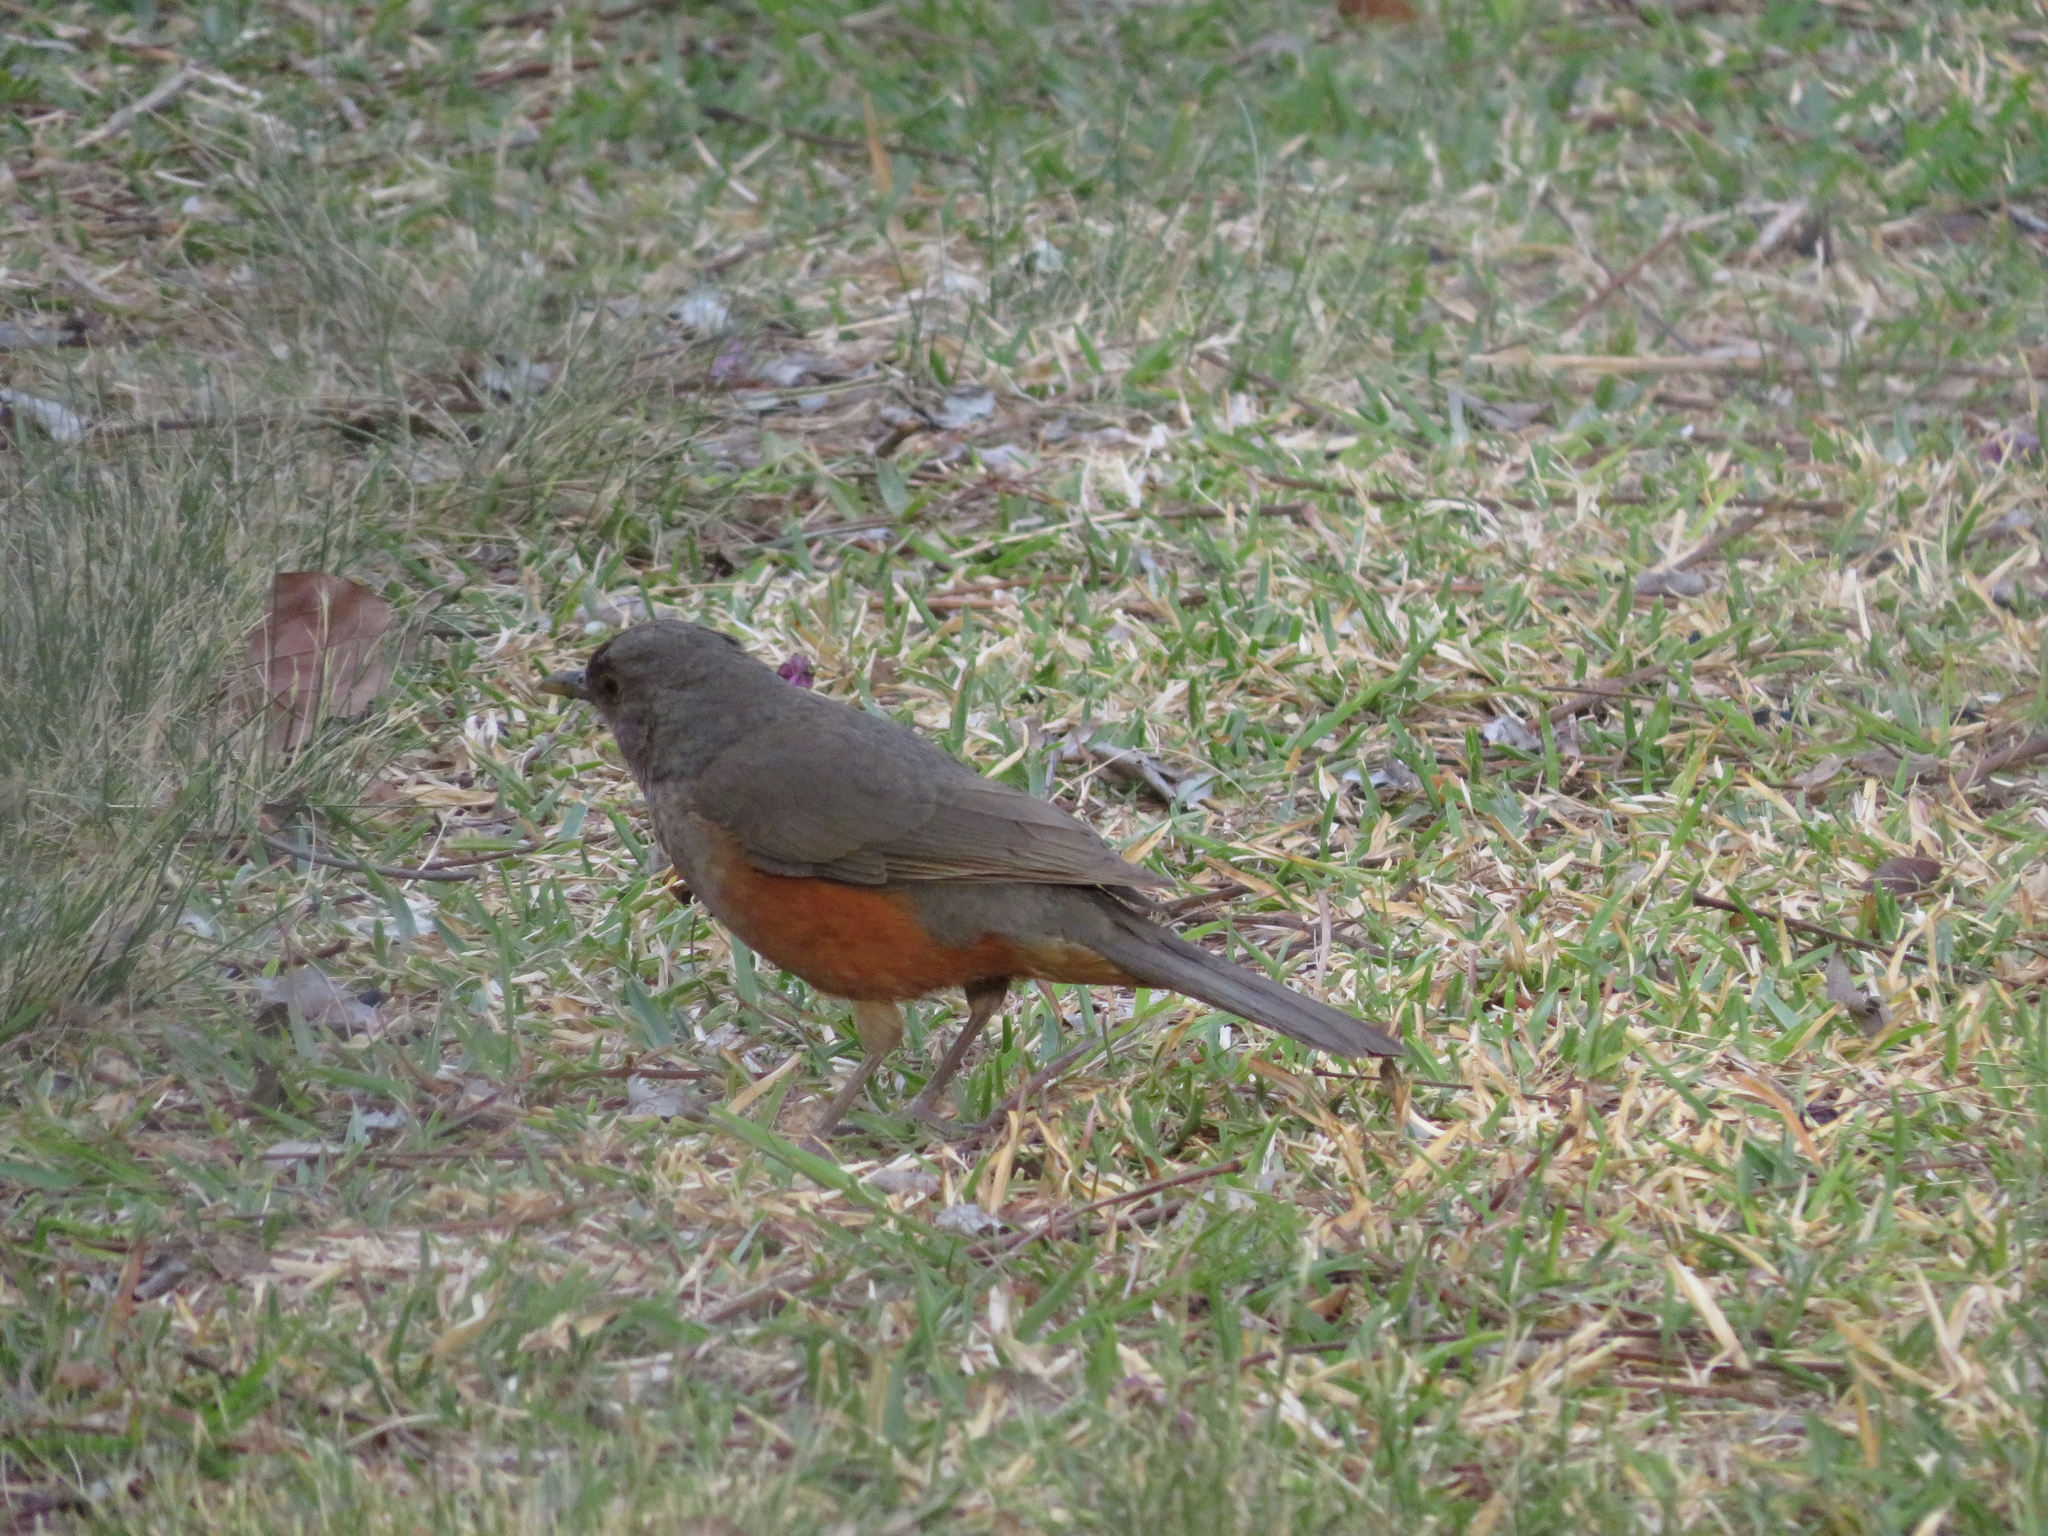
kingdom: Animalia
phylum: Chordata
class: Aves
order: Passeriformes
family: Turdidae
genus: Turdus
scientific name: Turdus rufiventris
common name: Rufous-bellied thrush
